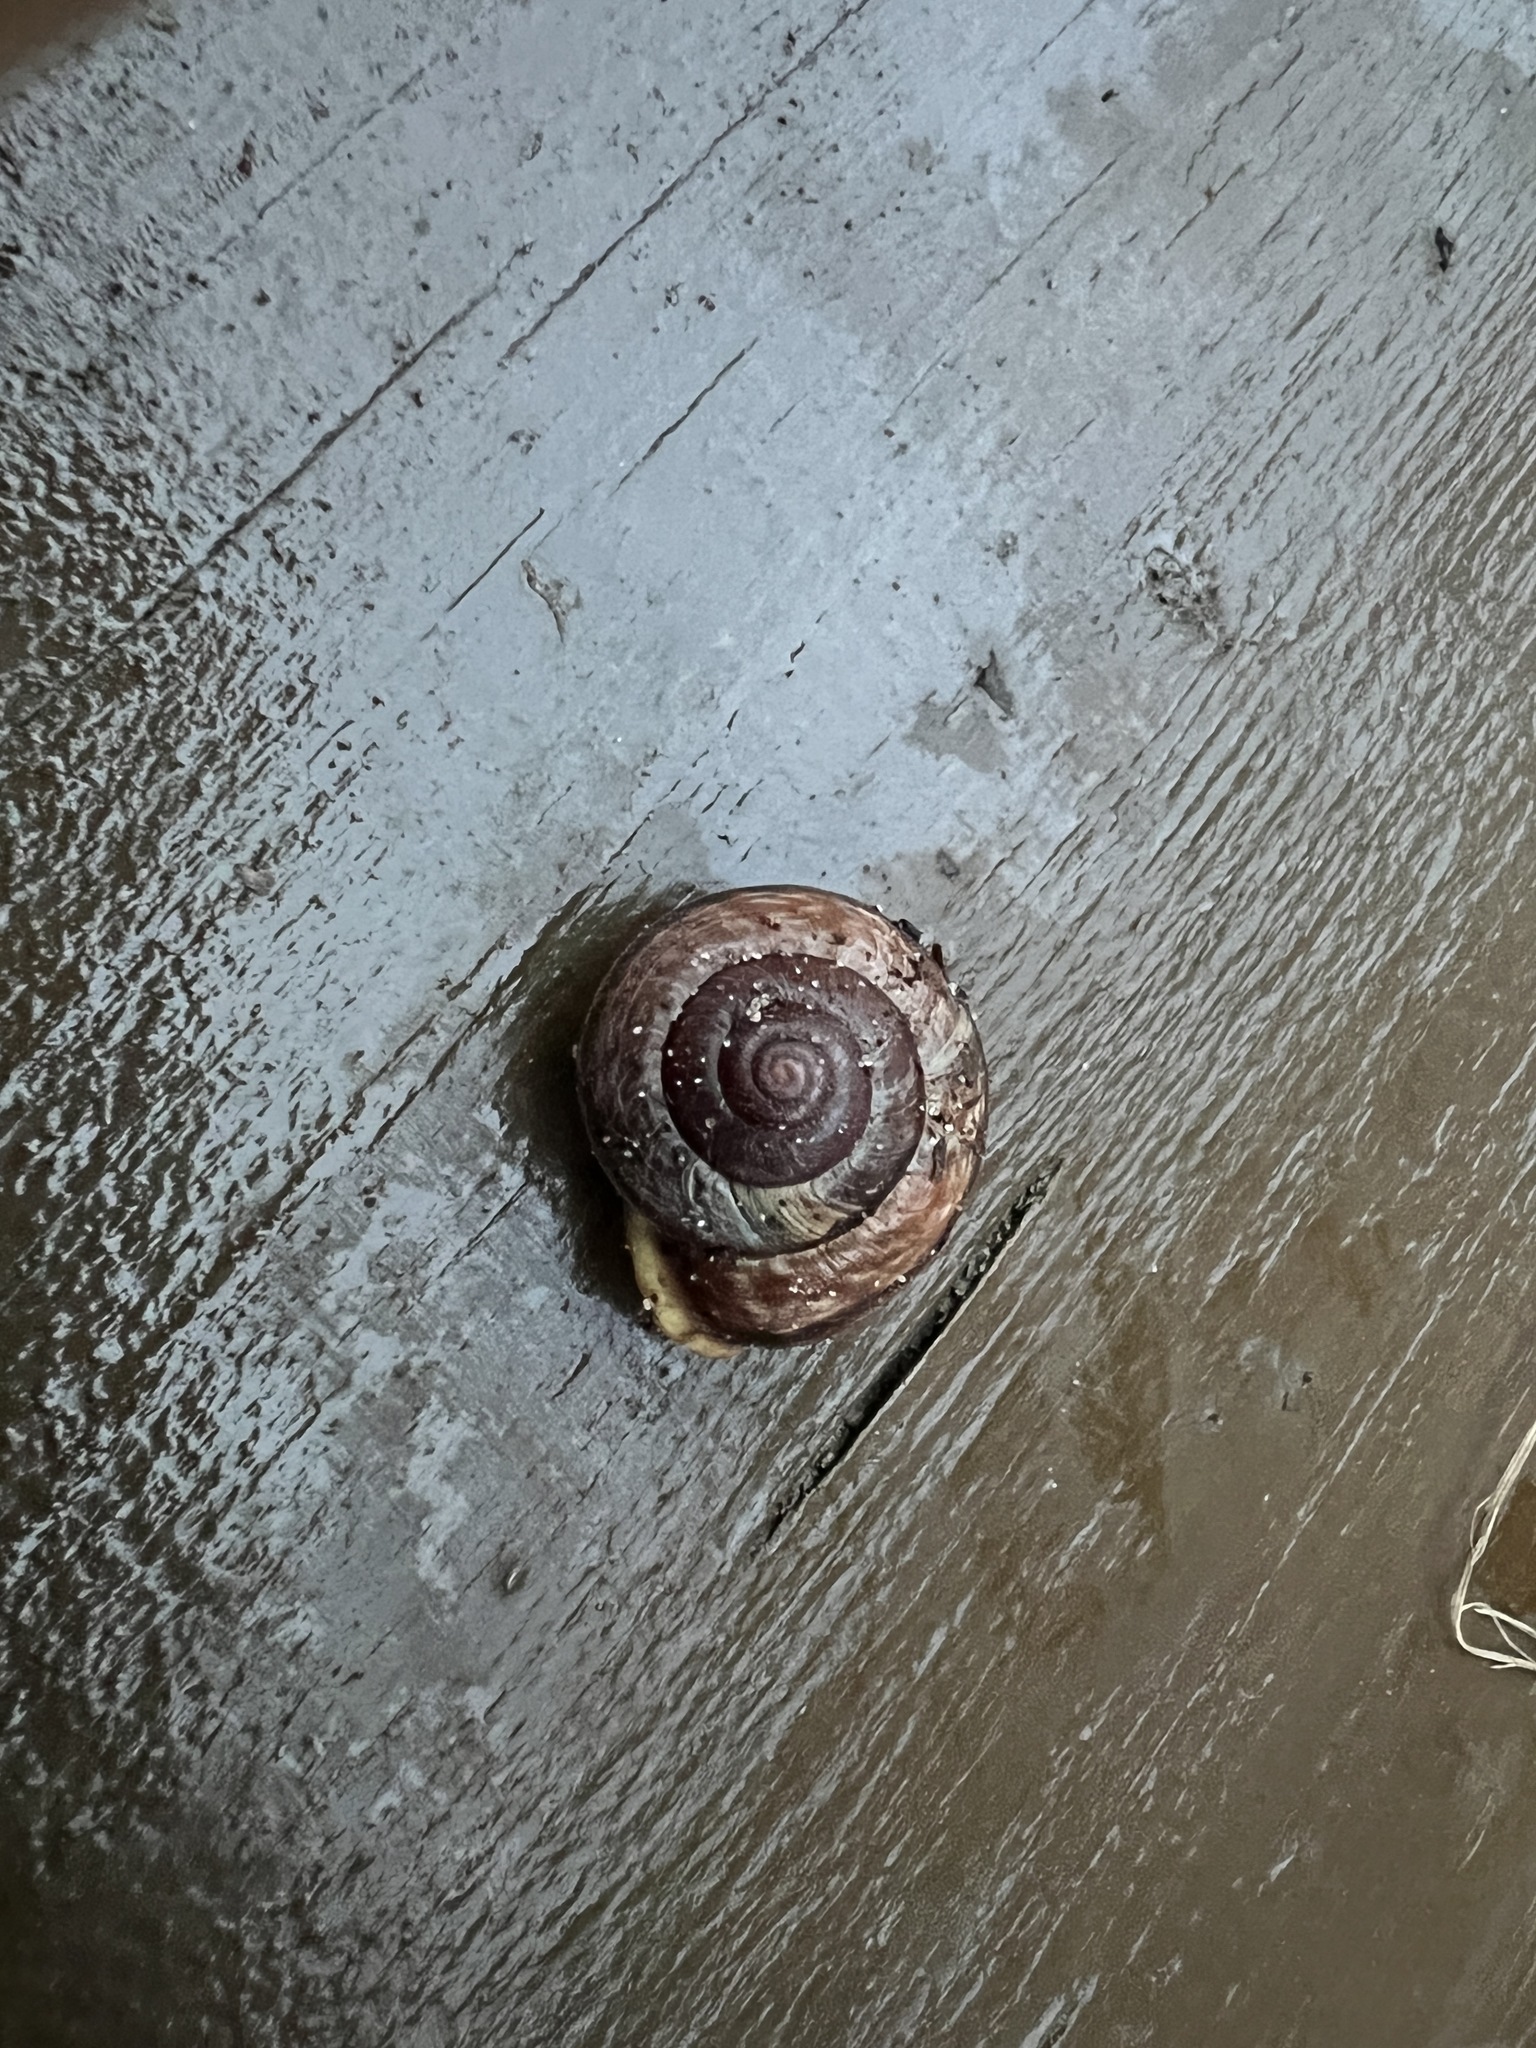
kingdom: Animalia
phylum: Mollusca
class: Gastropoda
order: Stylommatophora
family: Helicidae
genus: Arianta
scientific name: Arianta arbustorum
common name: Copse snail
